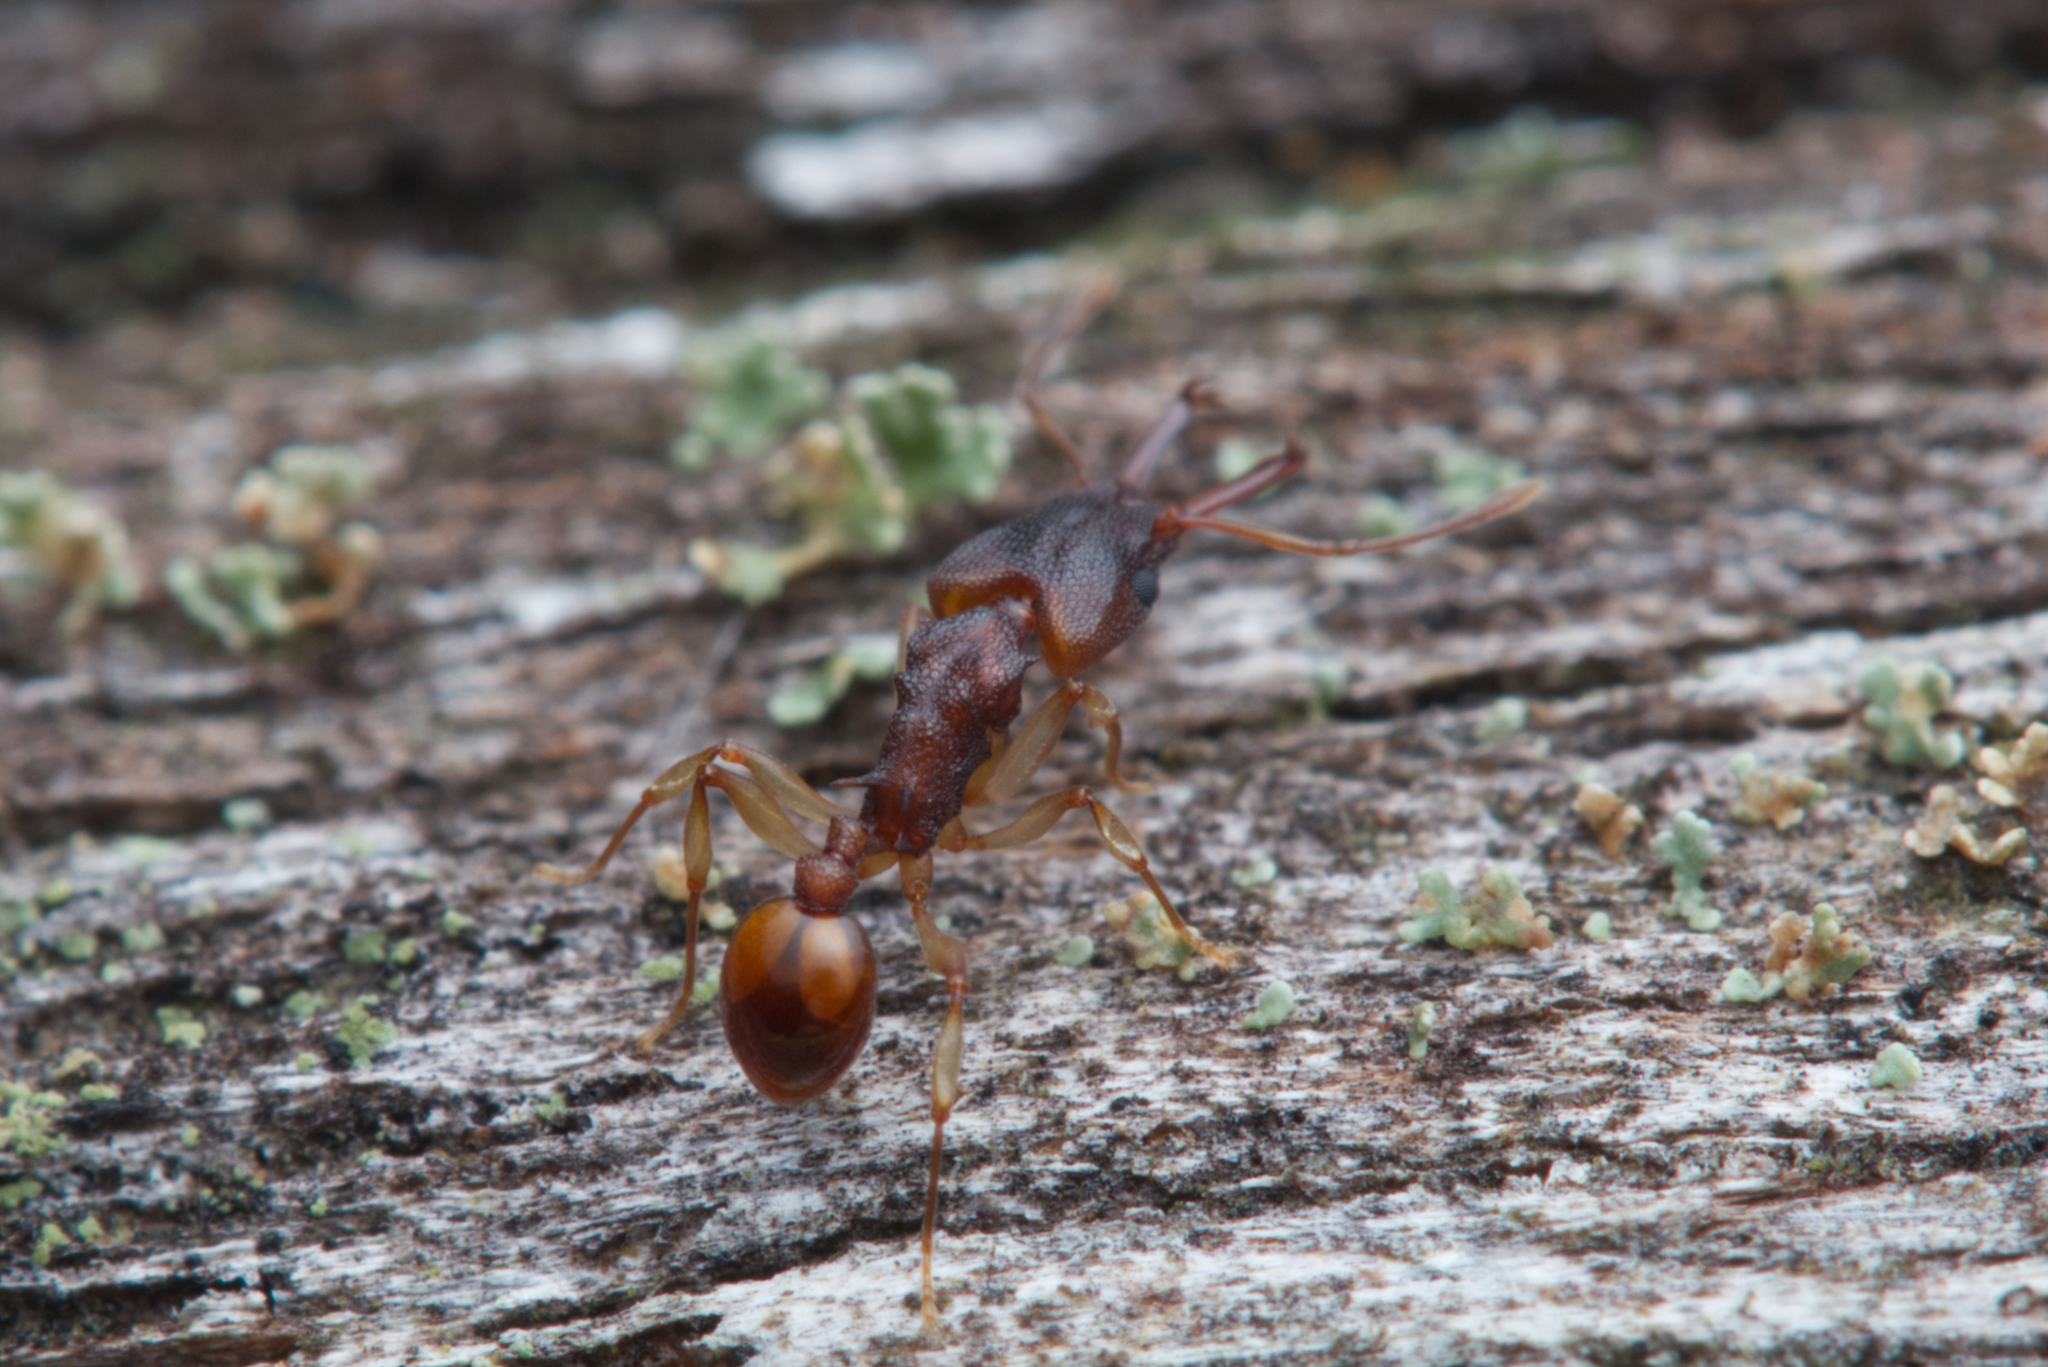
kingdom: Animalia
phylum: Arthropoda
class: Insecta
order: Hymenoptera
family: Formicidae
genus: Orectognathus
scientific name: Orectognathus mjobergi
